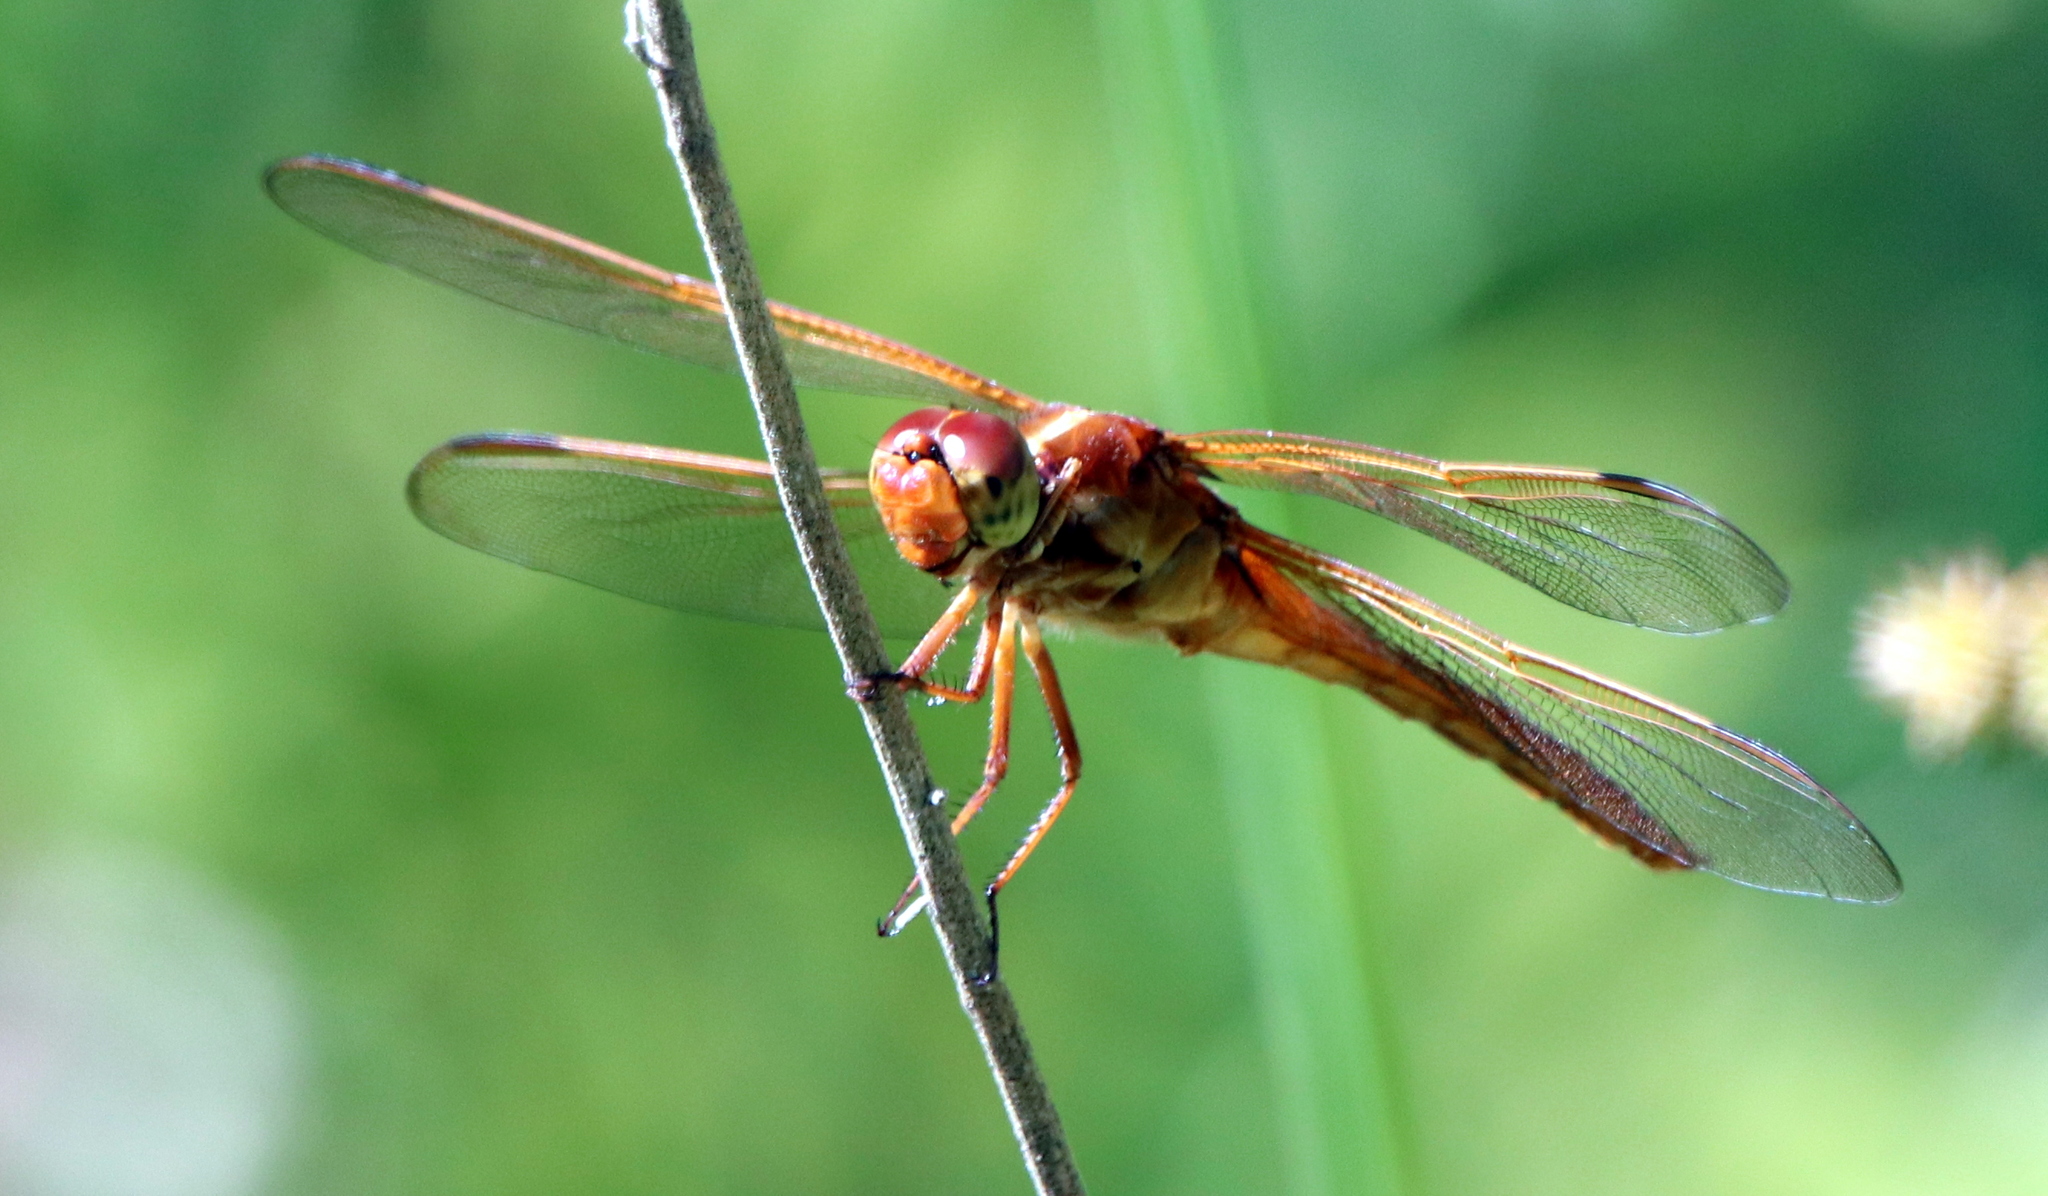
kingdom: Animalia
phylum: Arthropoda
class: Insecta
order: Odonata
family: Libellulidae
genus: Libellula
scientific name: Libellula needhami
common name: Needham's skimmer
